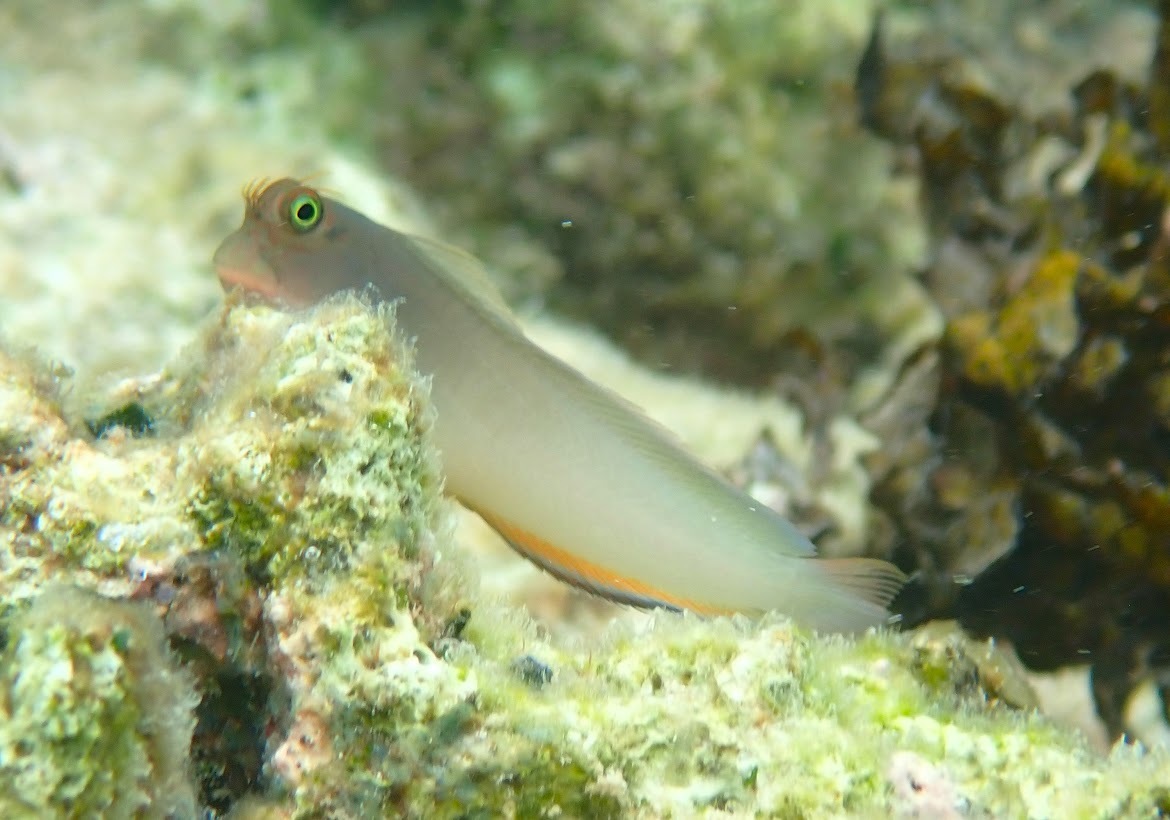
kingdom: Animalia
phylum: Chordata
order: Perciformes
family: Blenniidae
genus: Ophioblennius
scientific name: Ophioblennius macclurei
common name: Redlip blenny
